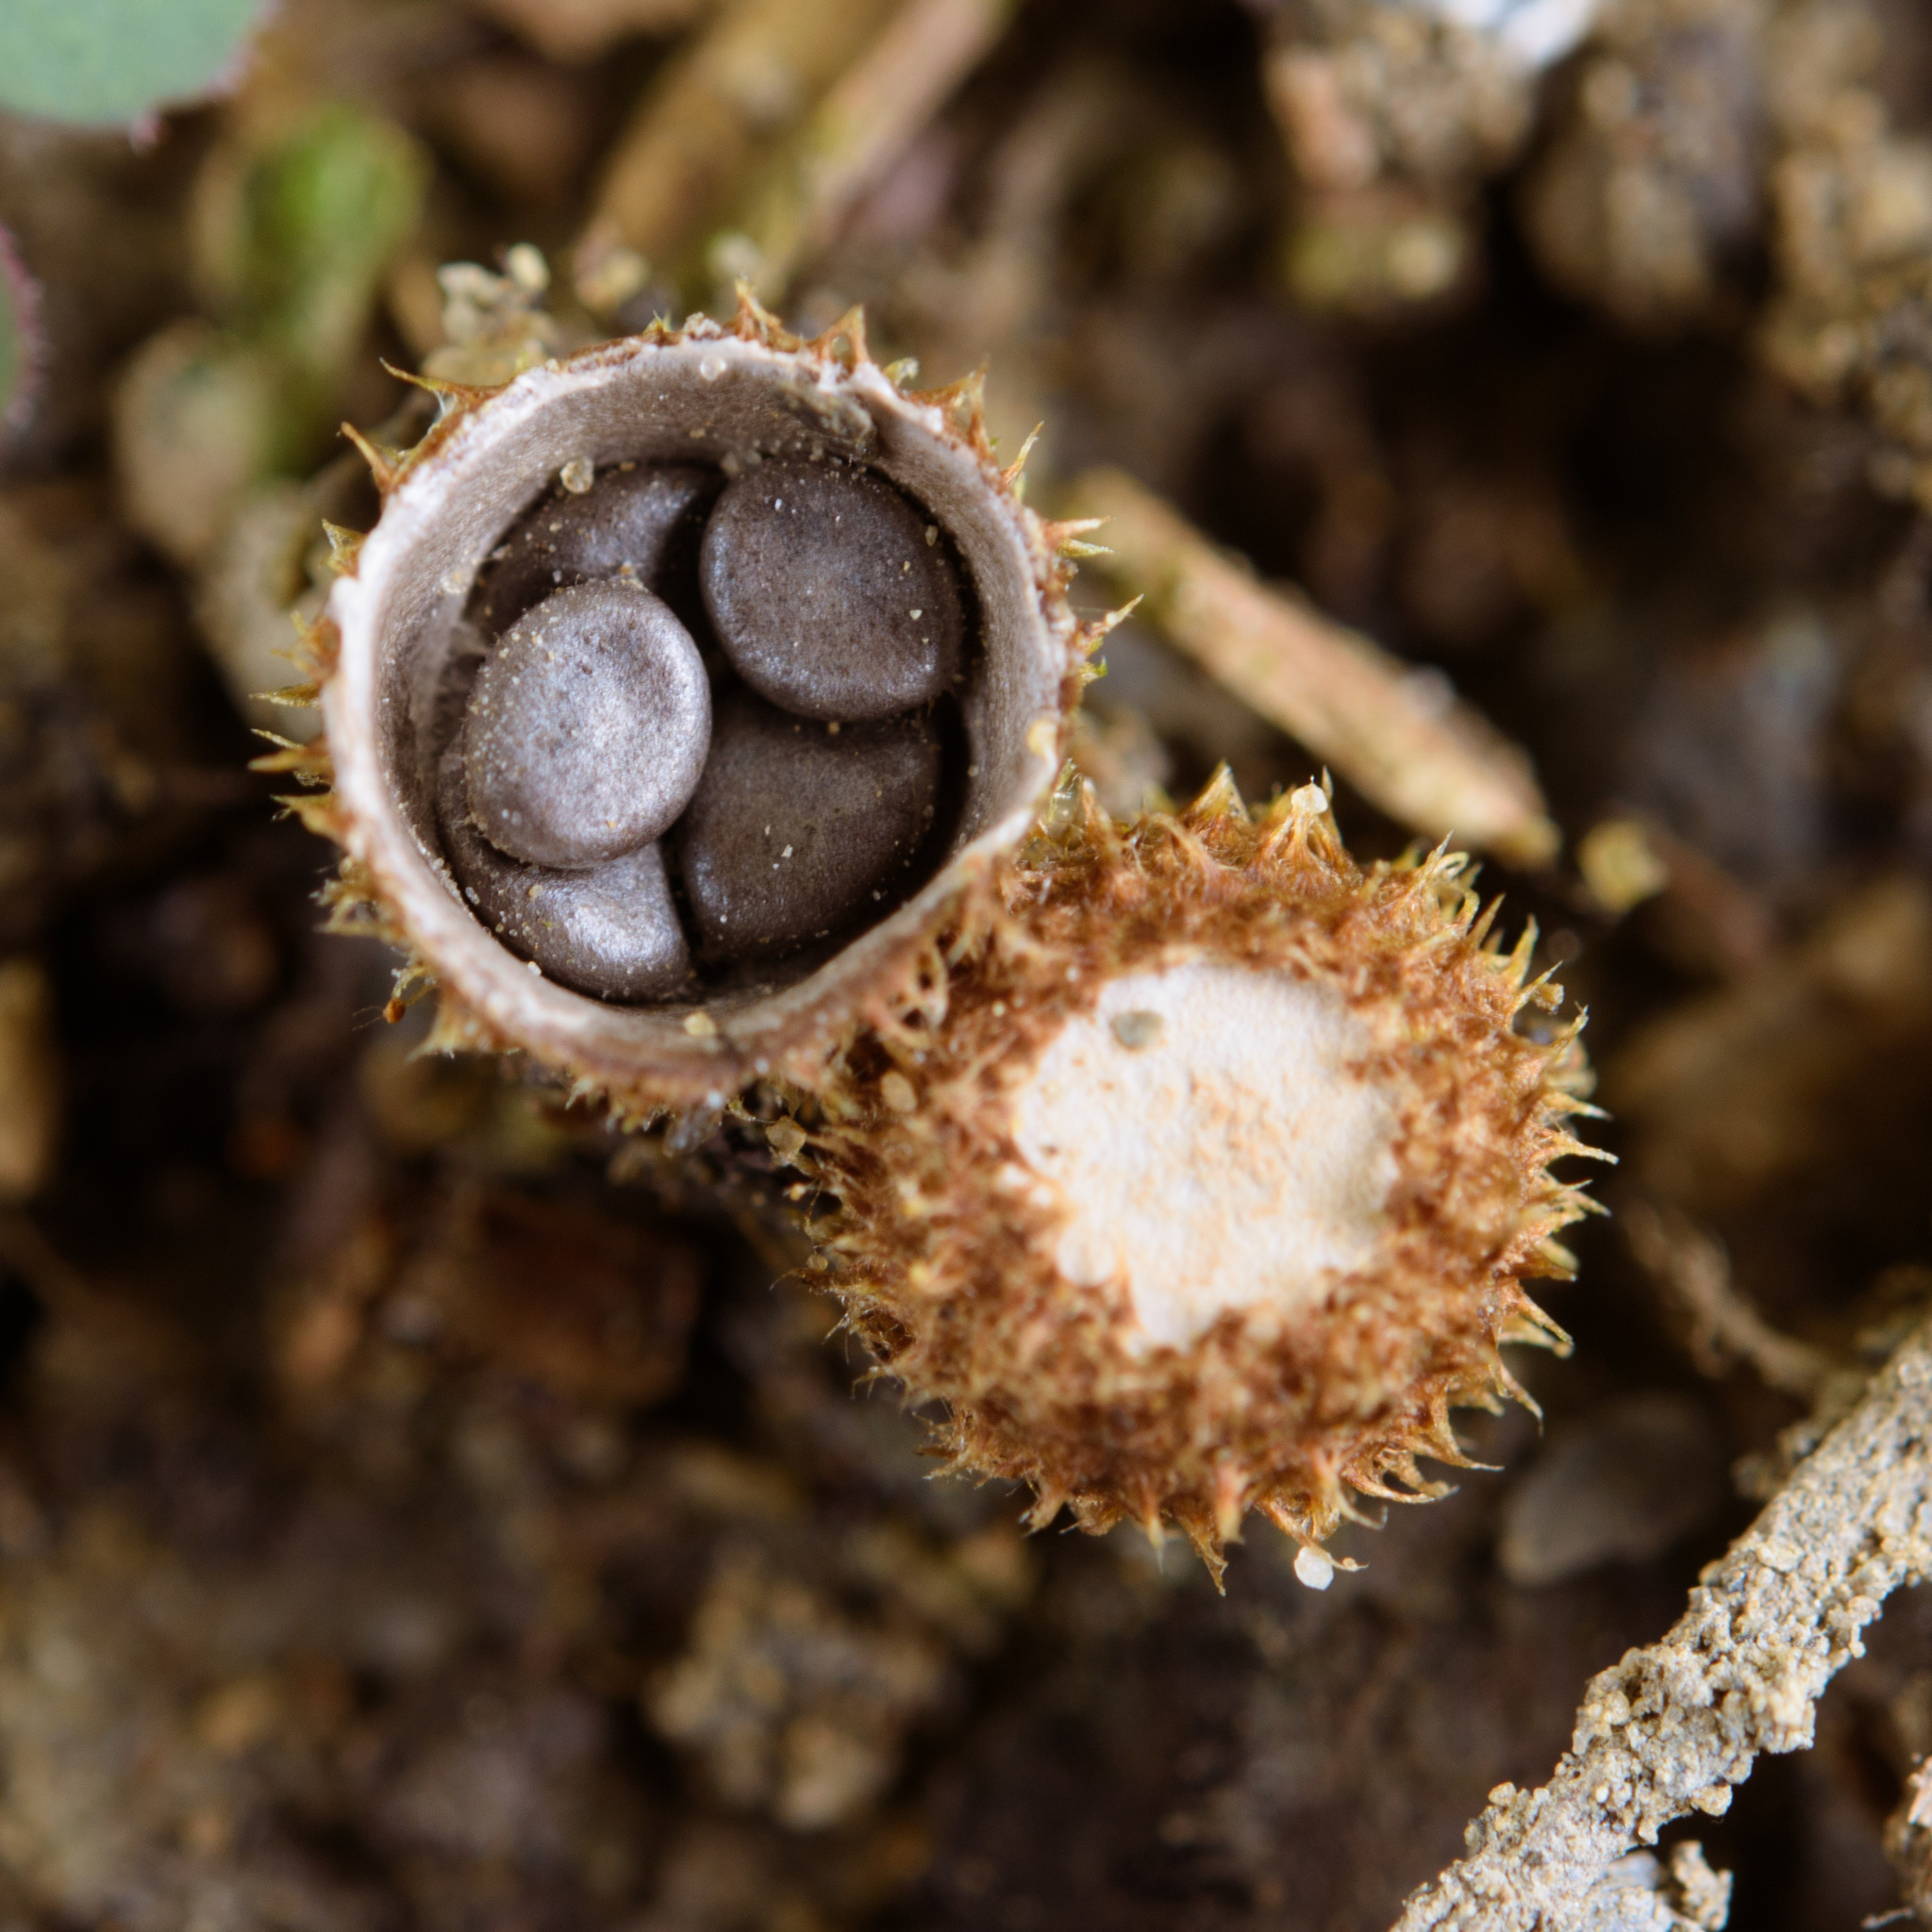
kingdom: Fungi
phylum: Basidiomycota
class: Agaricomycetes
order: Agaricales
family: Agaricaceae
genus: Cyathus
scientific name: Cyathus stercoreus
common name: Dung bird's nest
